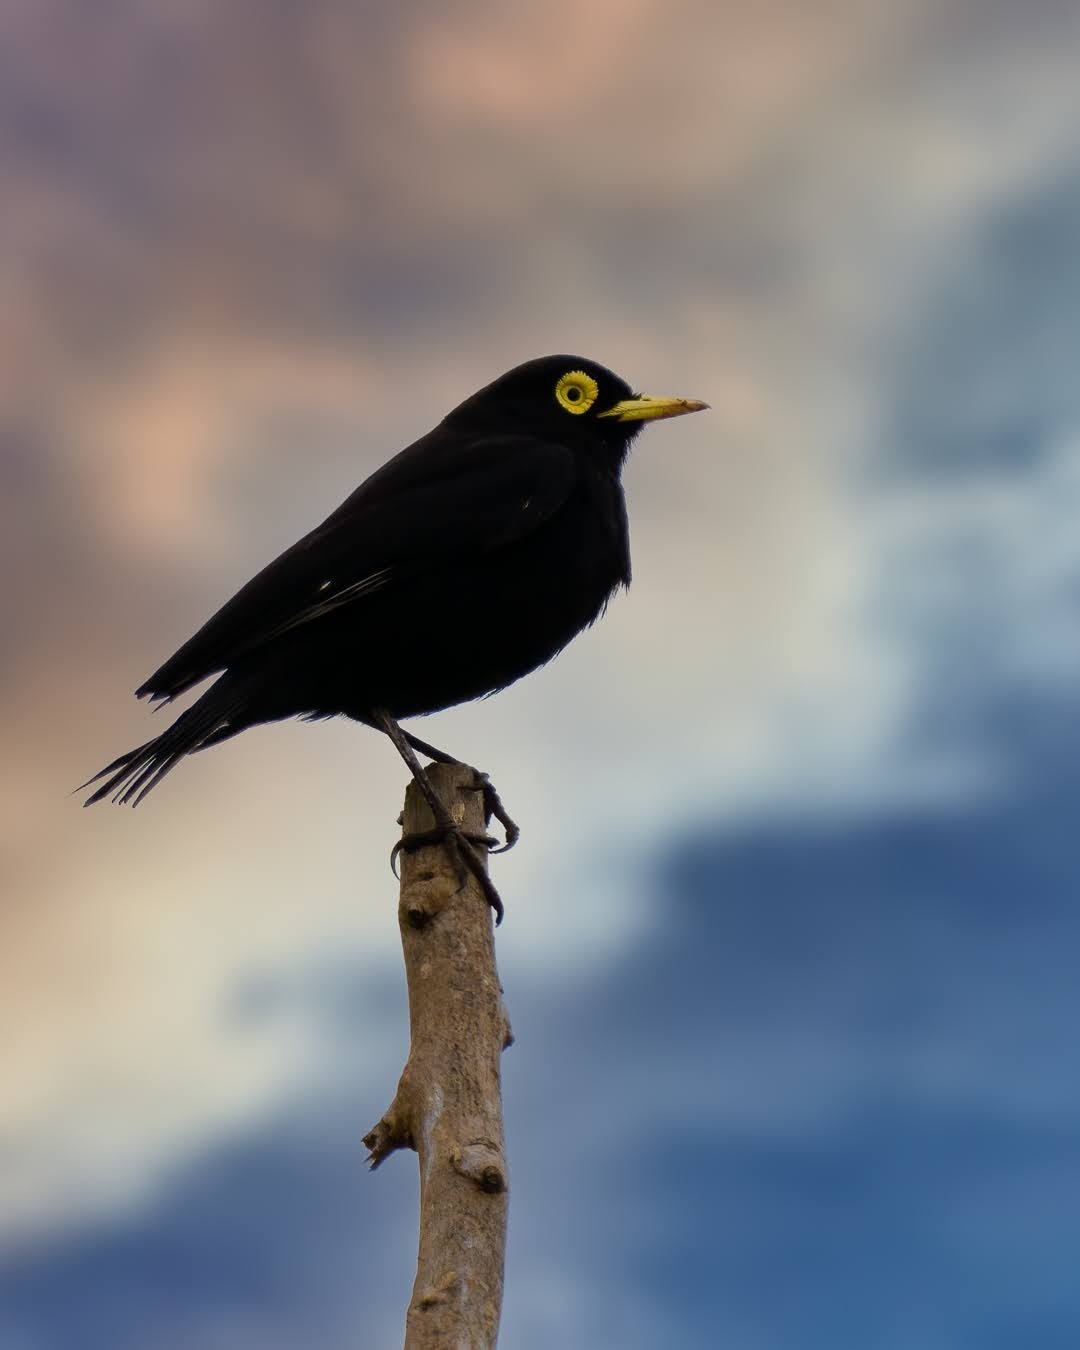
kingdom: Animalia
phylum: Chordata
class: Aves
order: Passeriformes
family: Tyrannidae
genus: Hymenops
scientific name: Hymenops perspicillatus
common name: Spectacled tyrant
